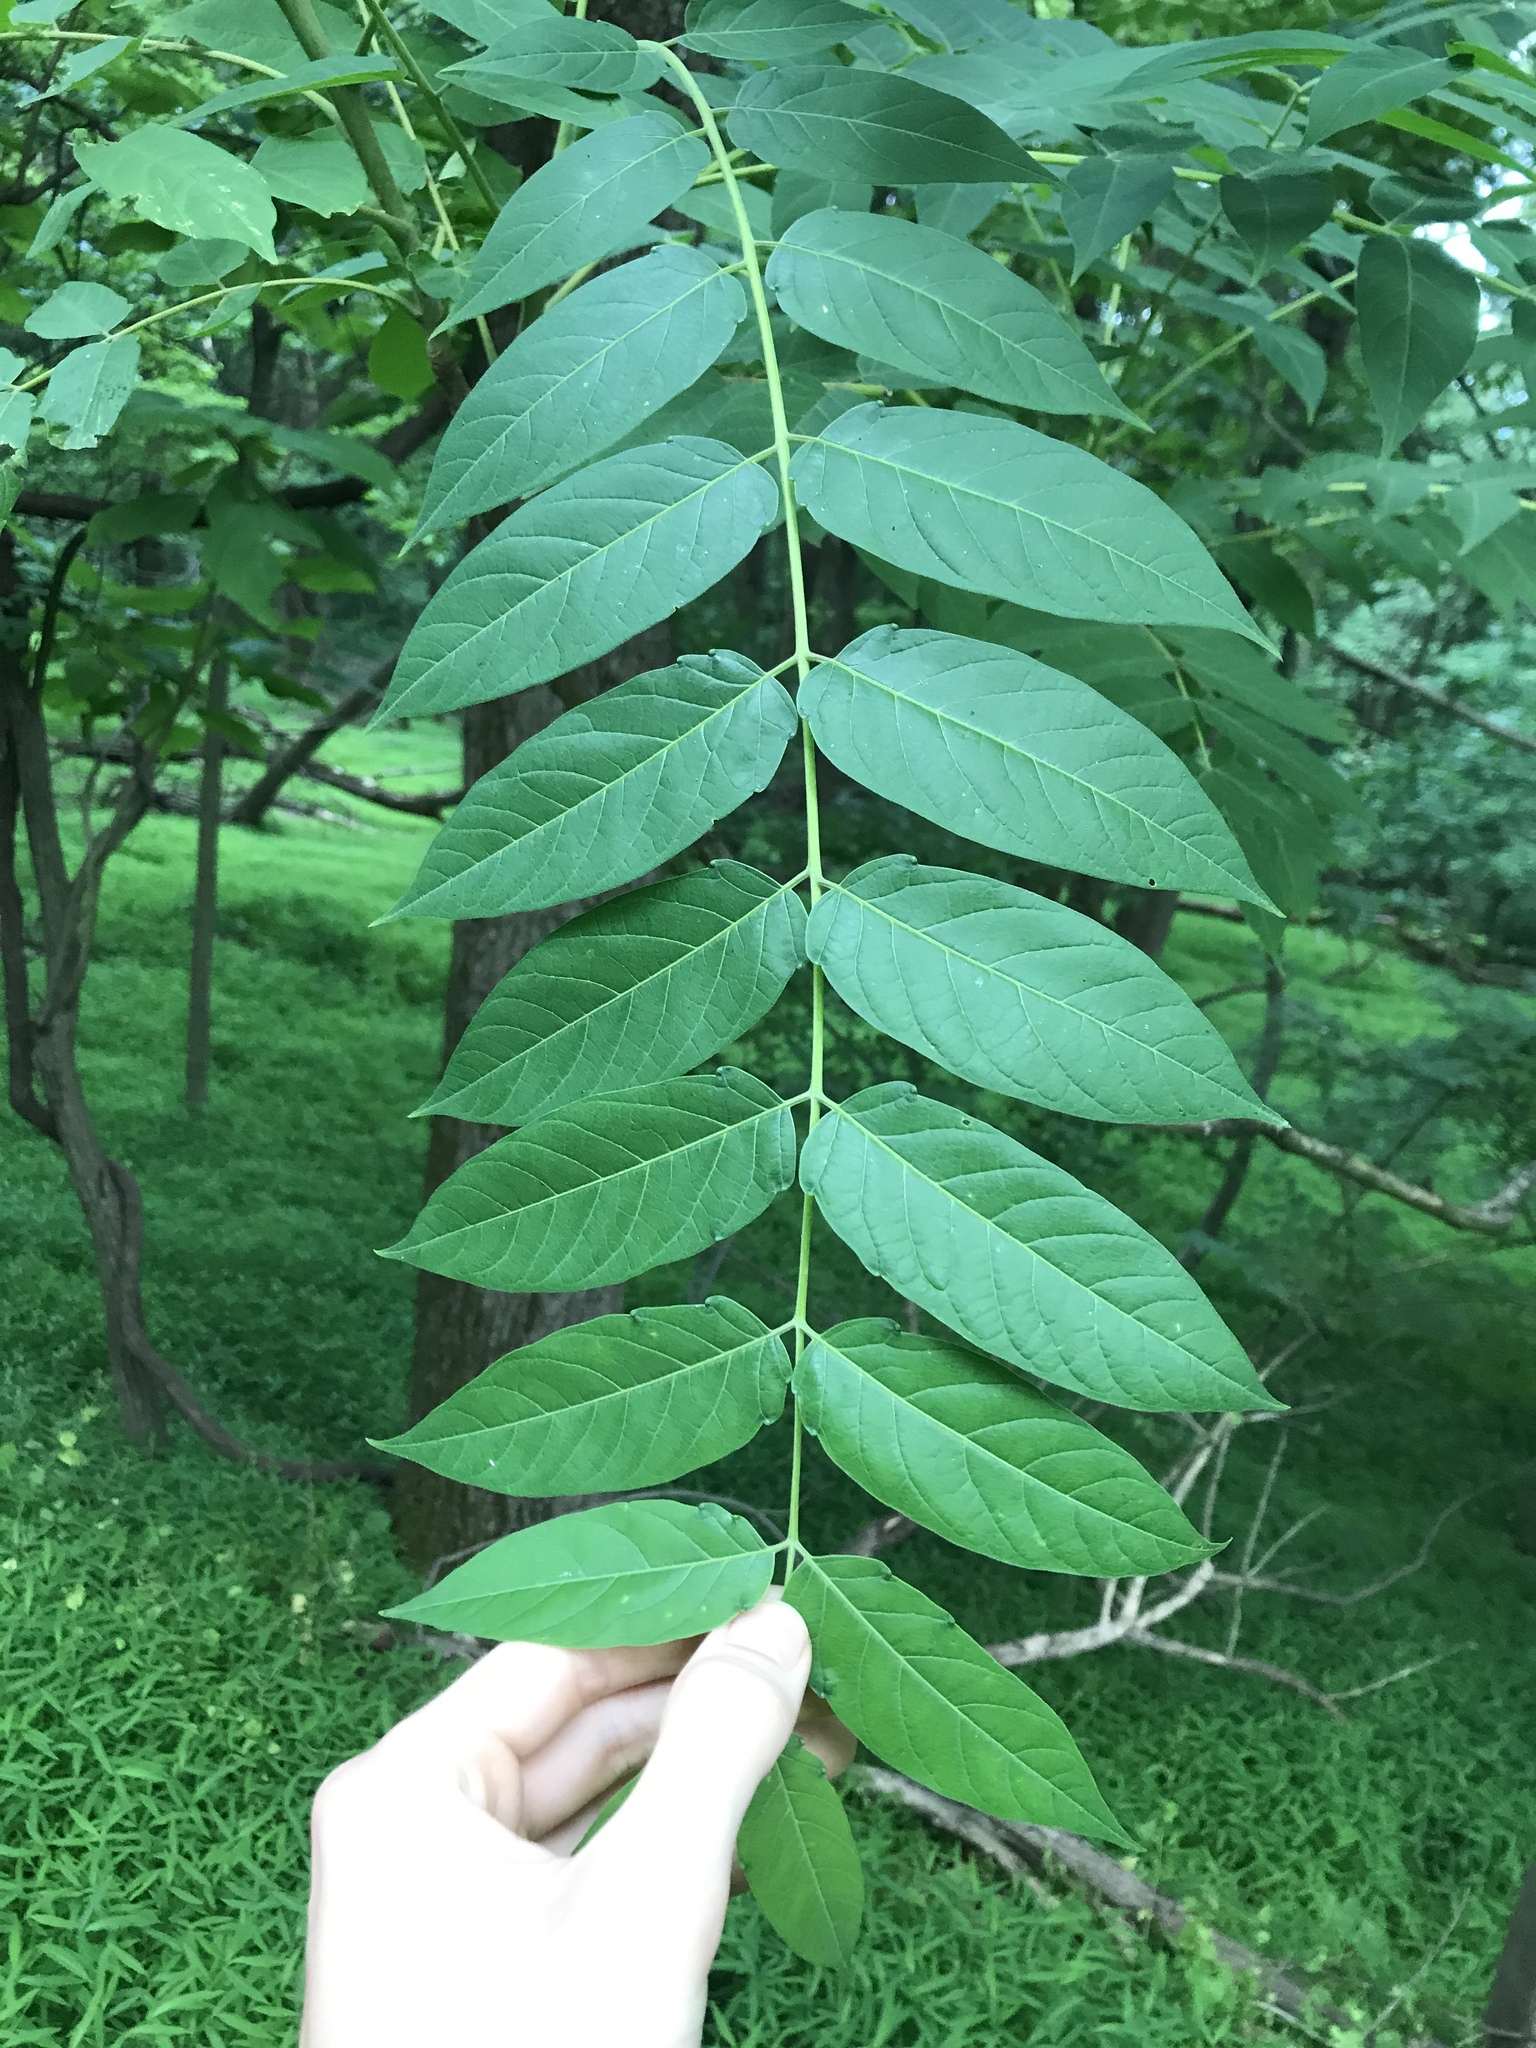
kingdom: Plantae
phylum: Tracheophyta
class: Magnoliopsida
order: Sapindales
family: Simaroubaceae
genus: Ailanthus
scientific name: Ailanthus altissima
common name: Tree-of-heaven
